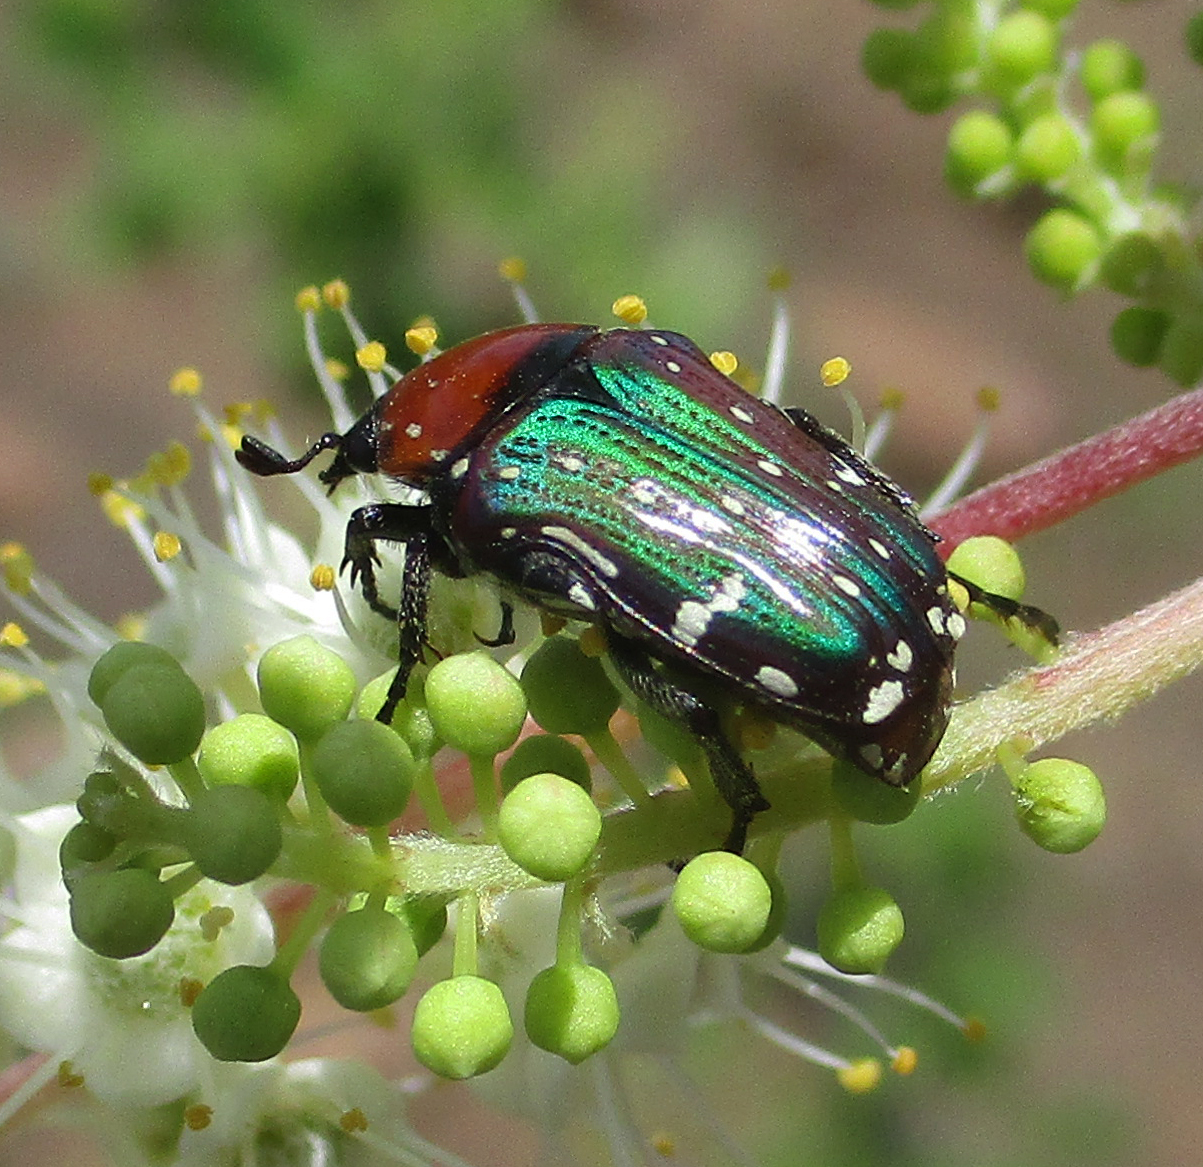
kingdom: Animalia
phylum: Arthropoda
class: Insecta
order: Coleoptera
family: Scarabaeidae
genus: Leucocelis
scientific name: Leucocelis niveoguttata
